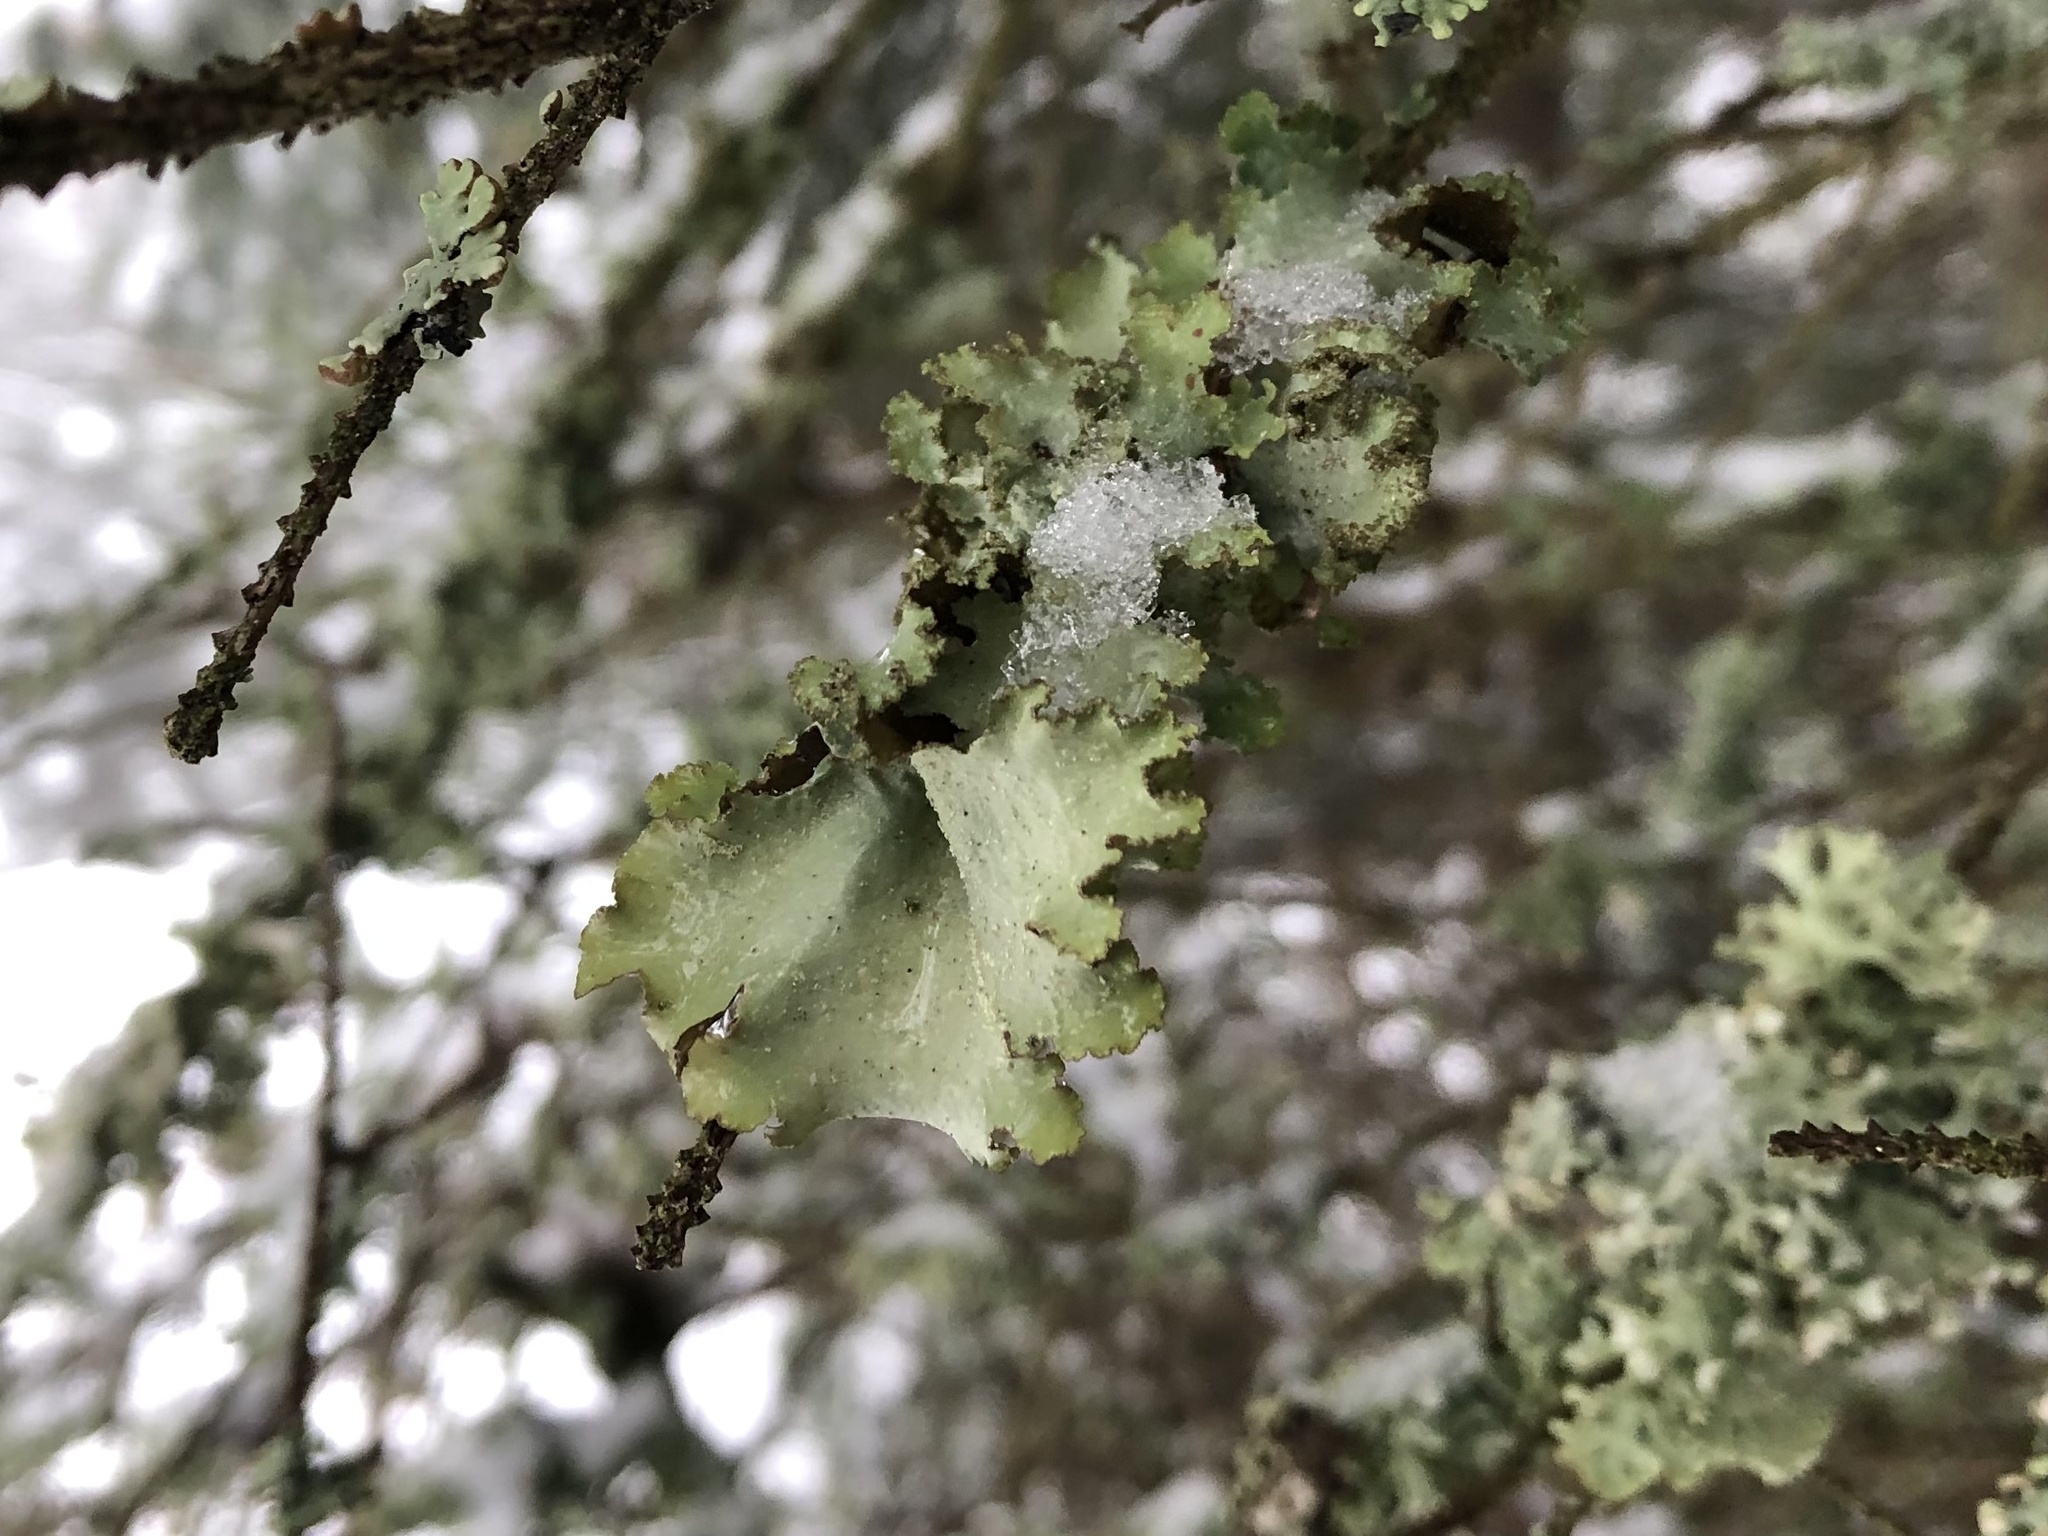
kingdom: Fungi
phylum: Ascomycota
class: Lecanoromycetes
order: Lecanorales
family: Parmeliaceae
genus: Platismatia
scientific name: Platismatia glauca
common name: Varied rag lichen
